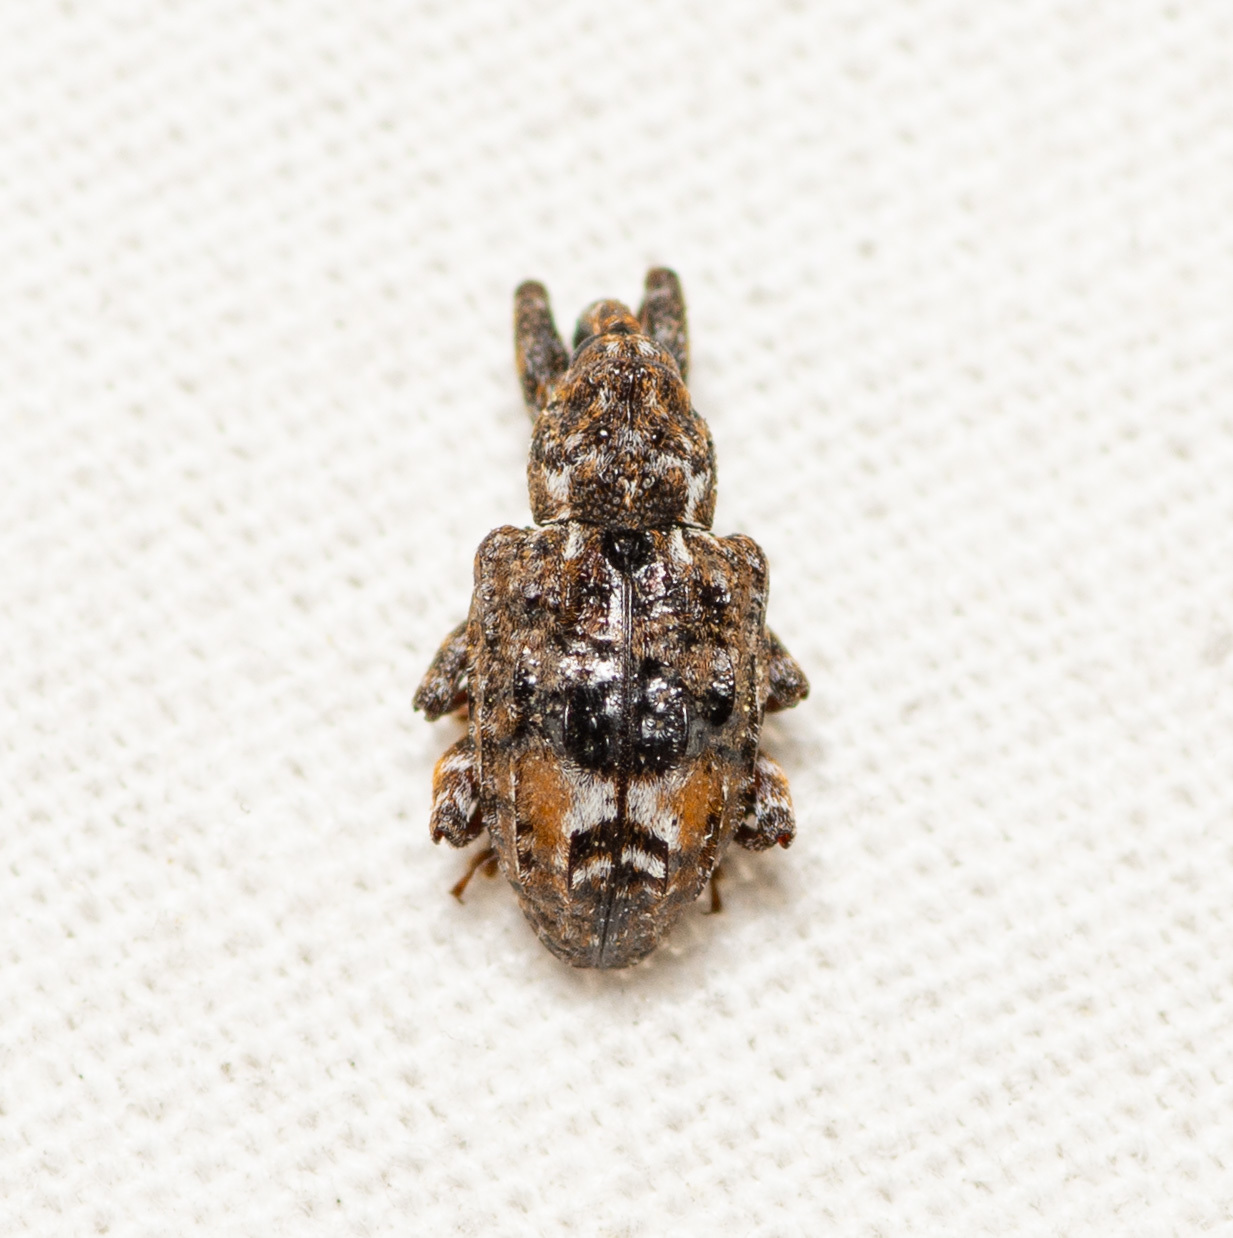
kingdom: Animalia
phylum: Arthropoda
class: Insecta
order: Coleoptera
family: Curculionidae
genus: Conotrachelus
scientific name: Conotrachelus nenuphar
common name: Plum curculio
